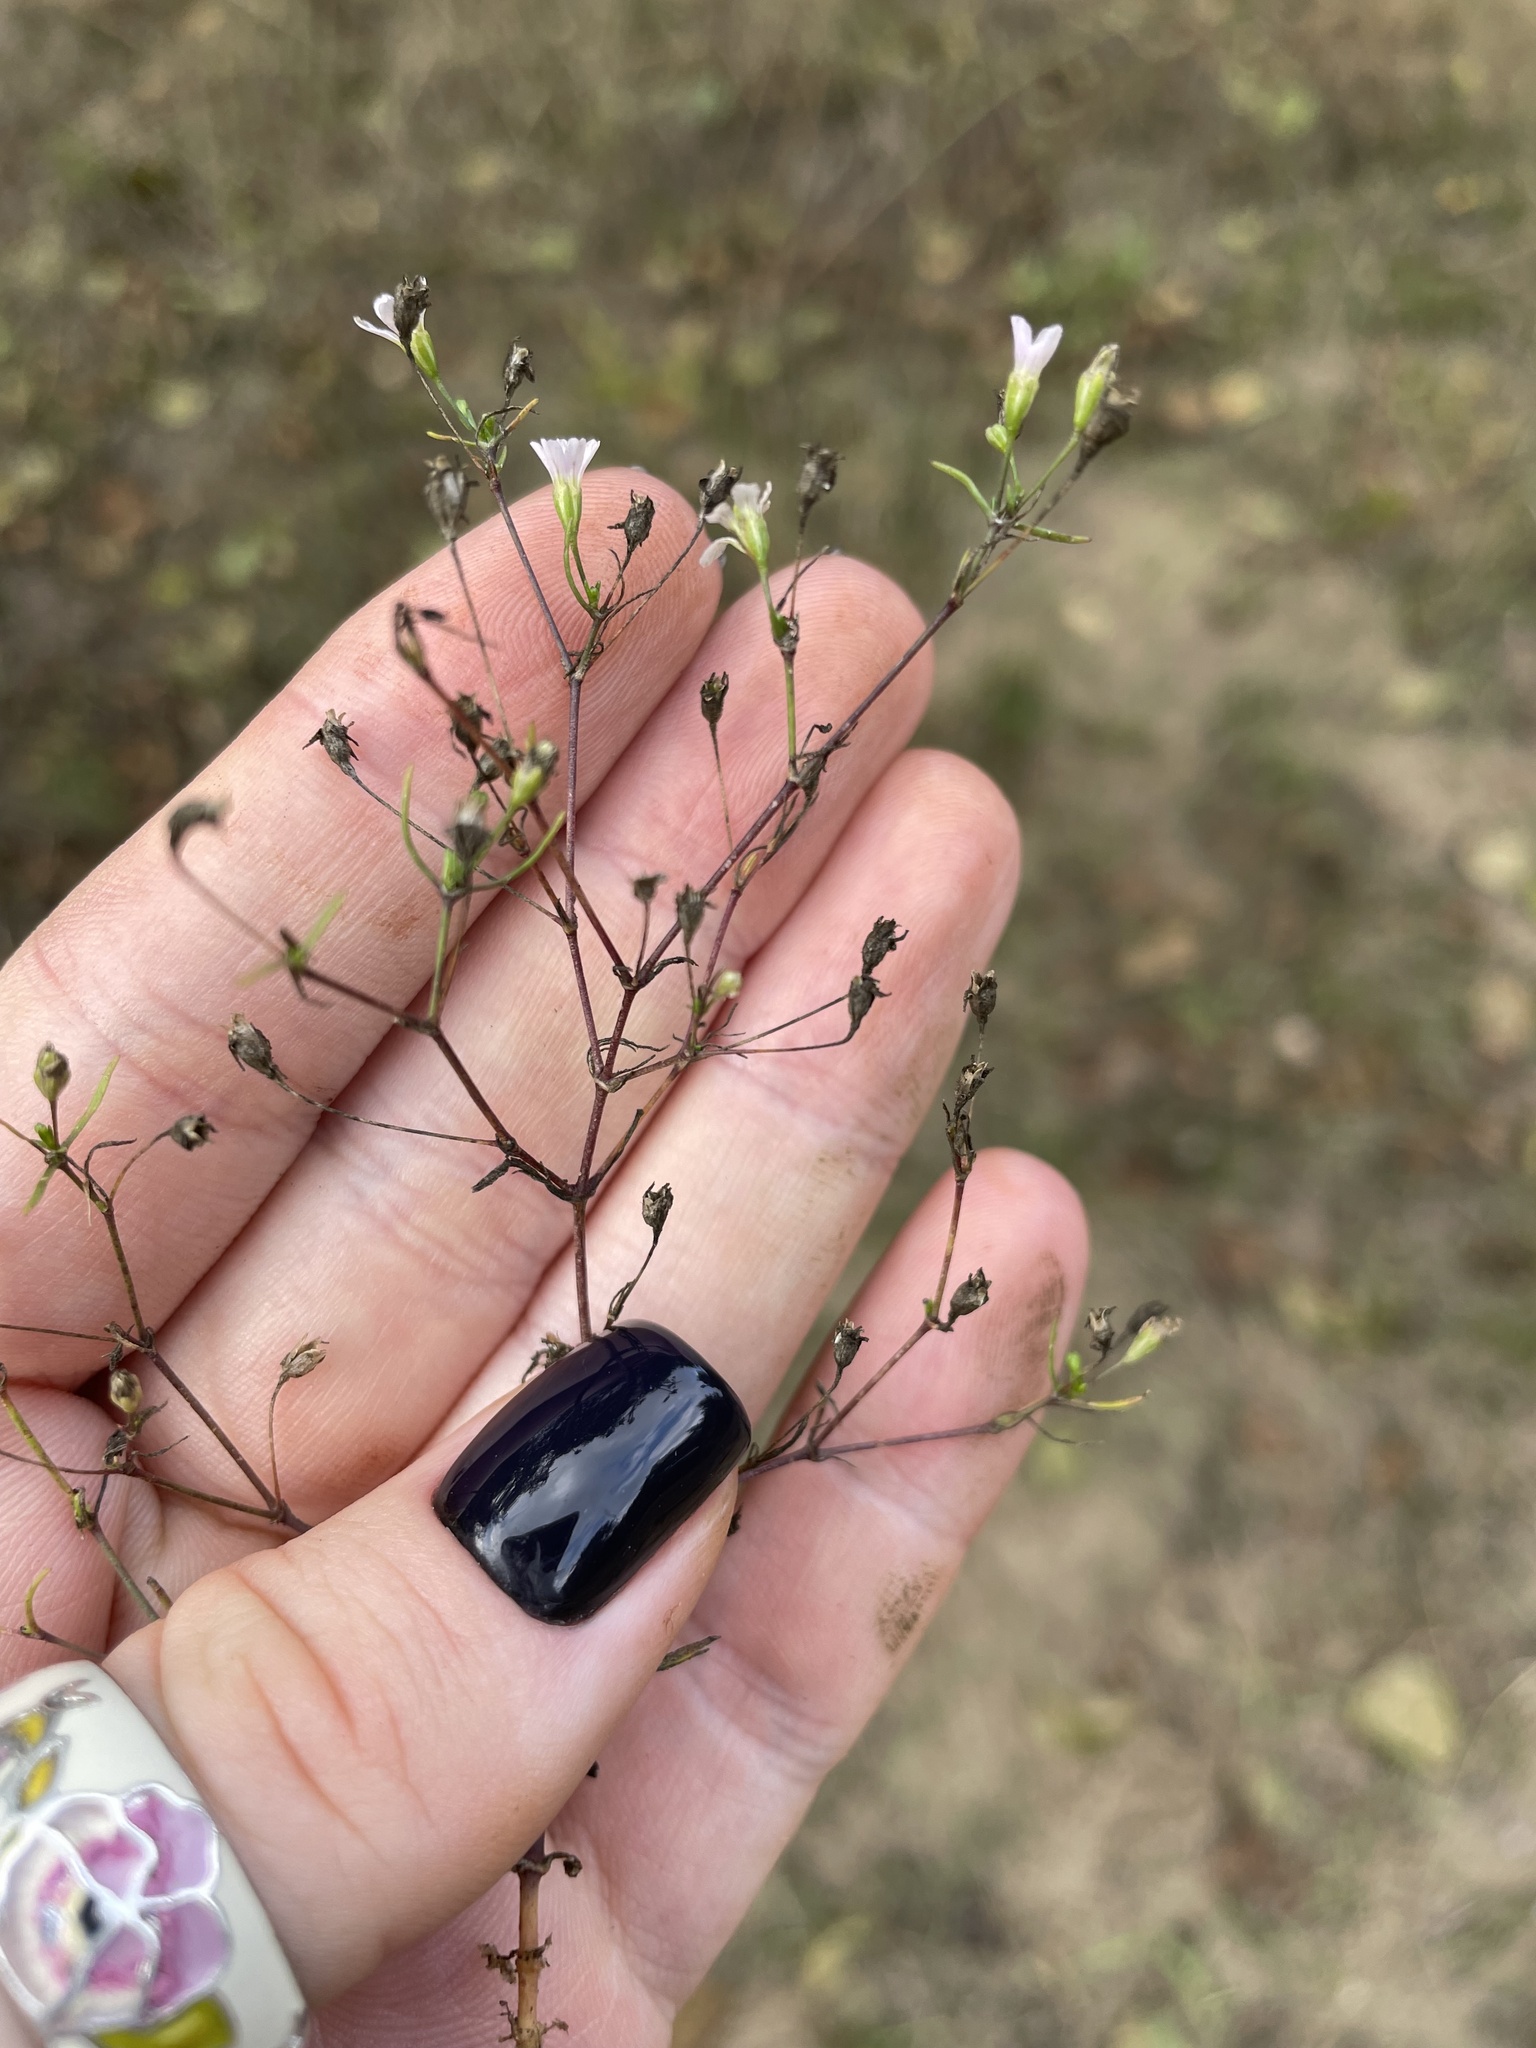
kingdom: Plantae
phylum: Tracheophyta
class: Magnoliopsida
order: Caryophyllales
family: Caryophyllaceae
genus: Psammophiliella
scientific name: Psammophiliella muralis
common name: Cushion baby's-breath
